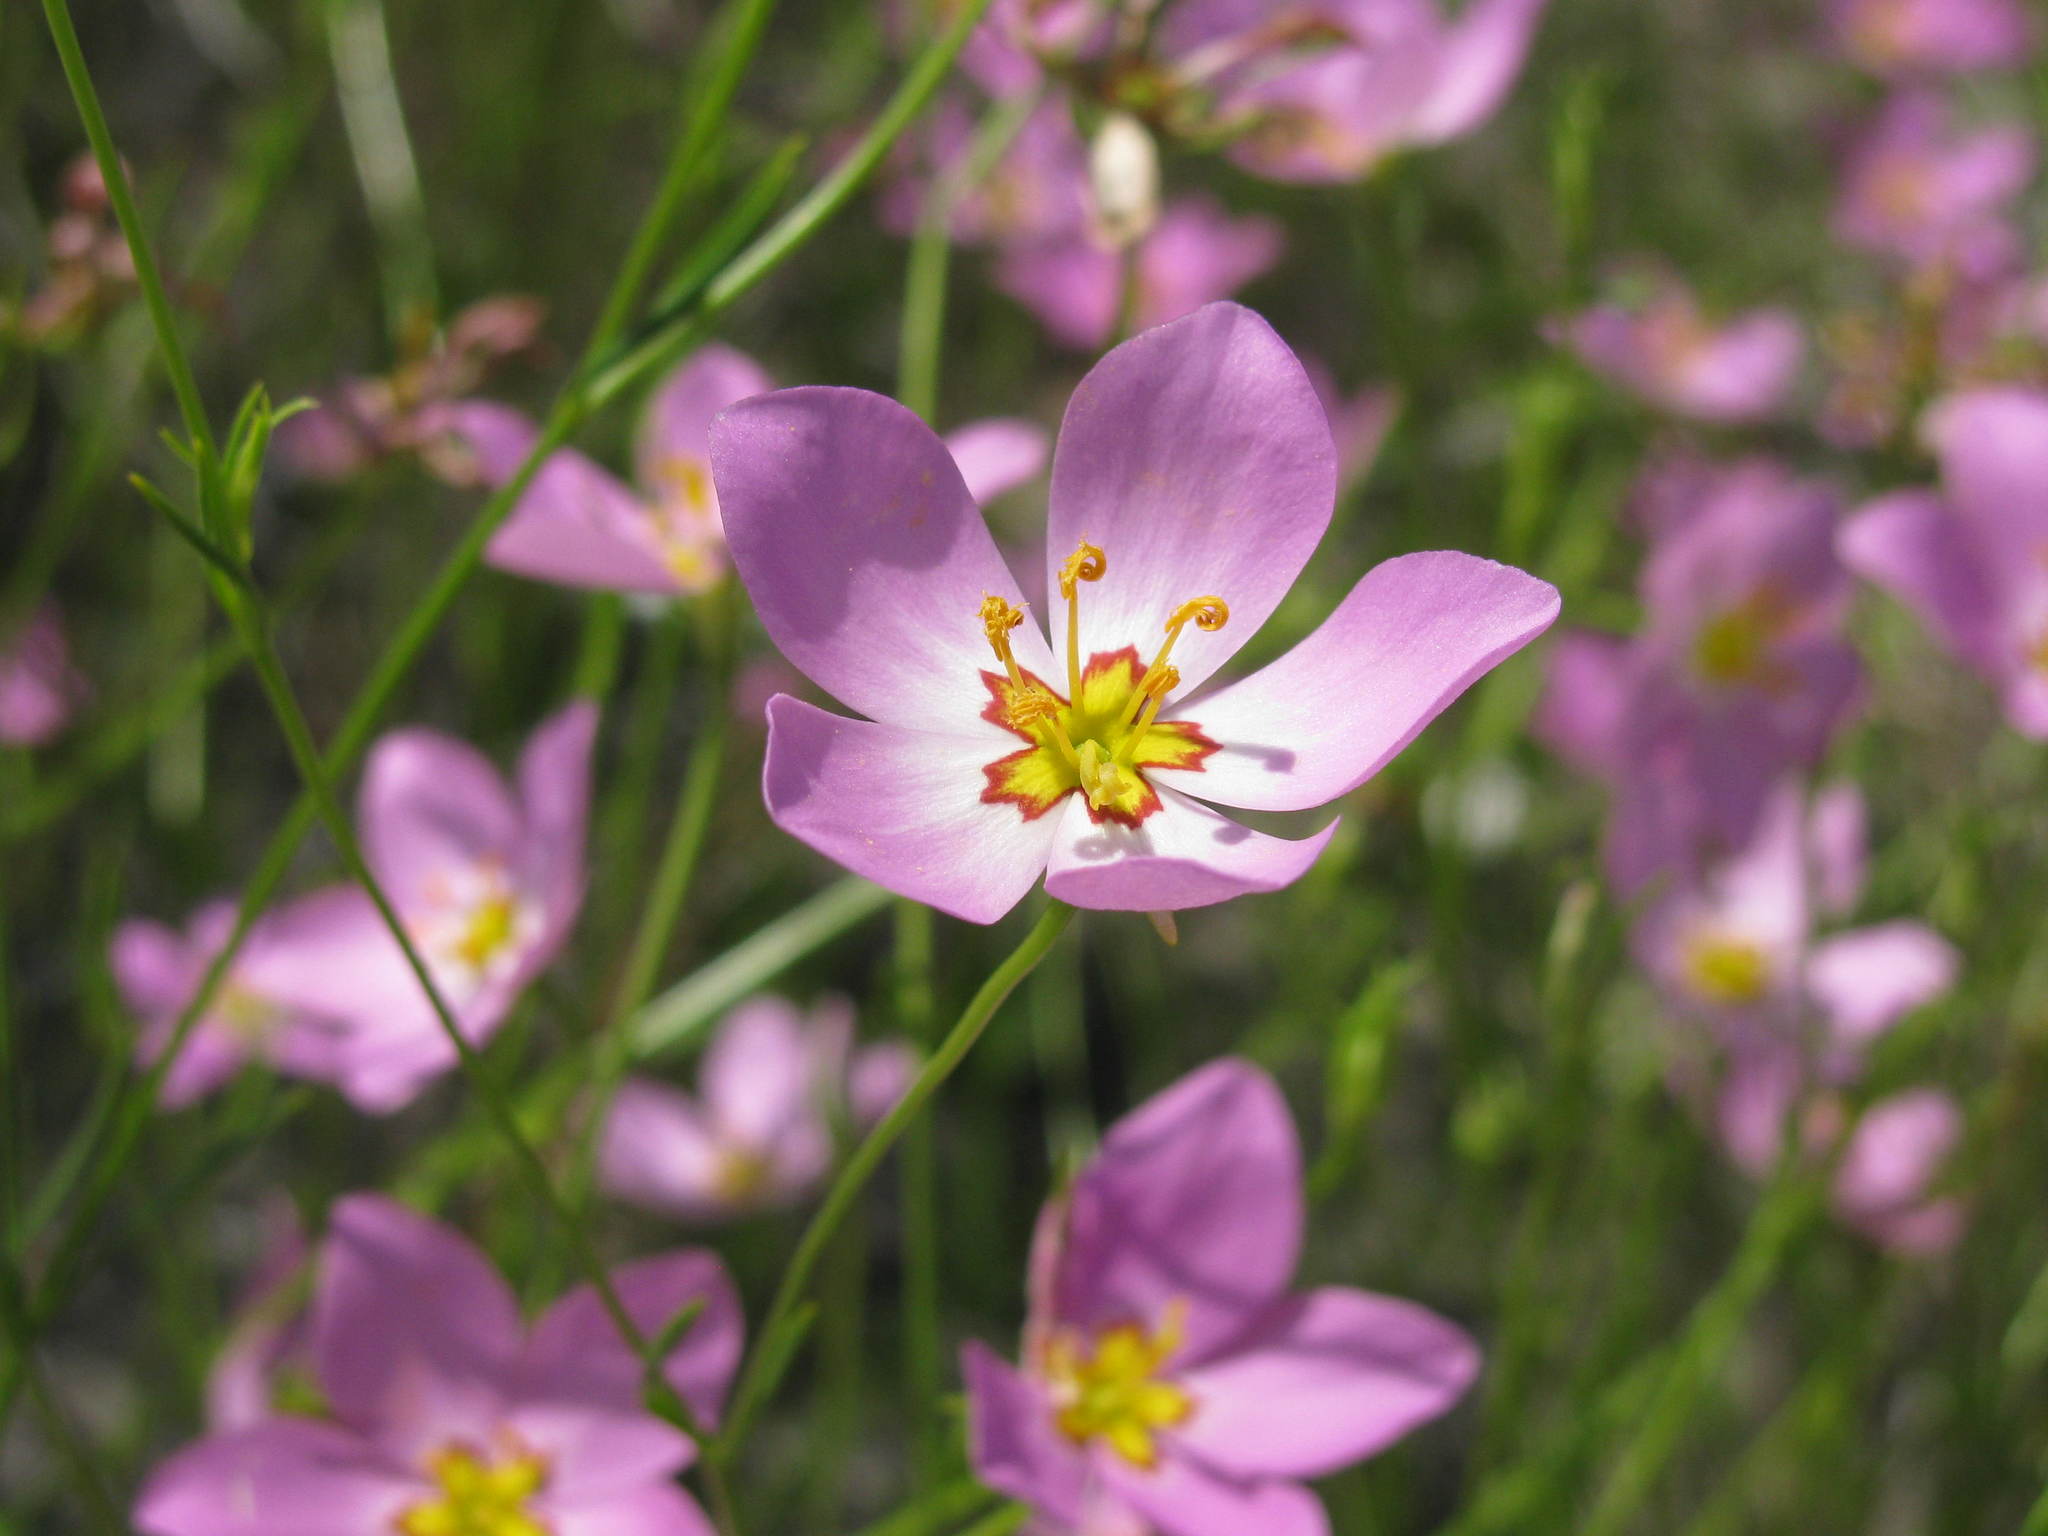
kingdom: Plantae
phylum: Tracheophyta
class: Magnoliopsida
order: Gentianales
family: Gentianaceae
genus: Sabatia
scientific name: Sabatia stellaris
